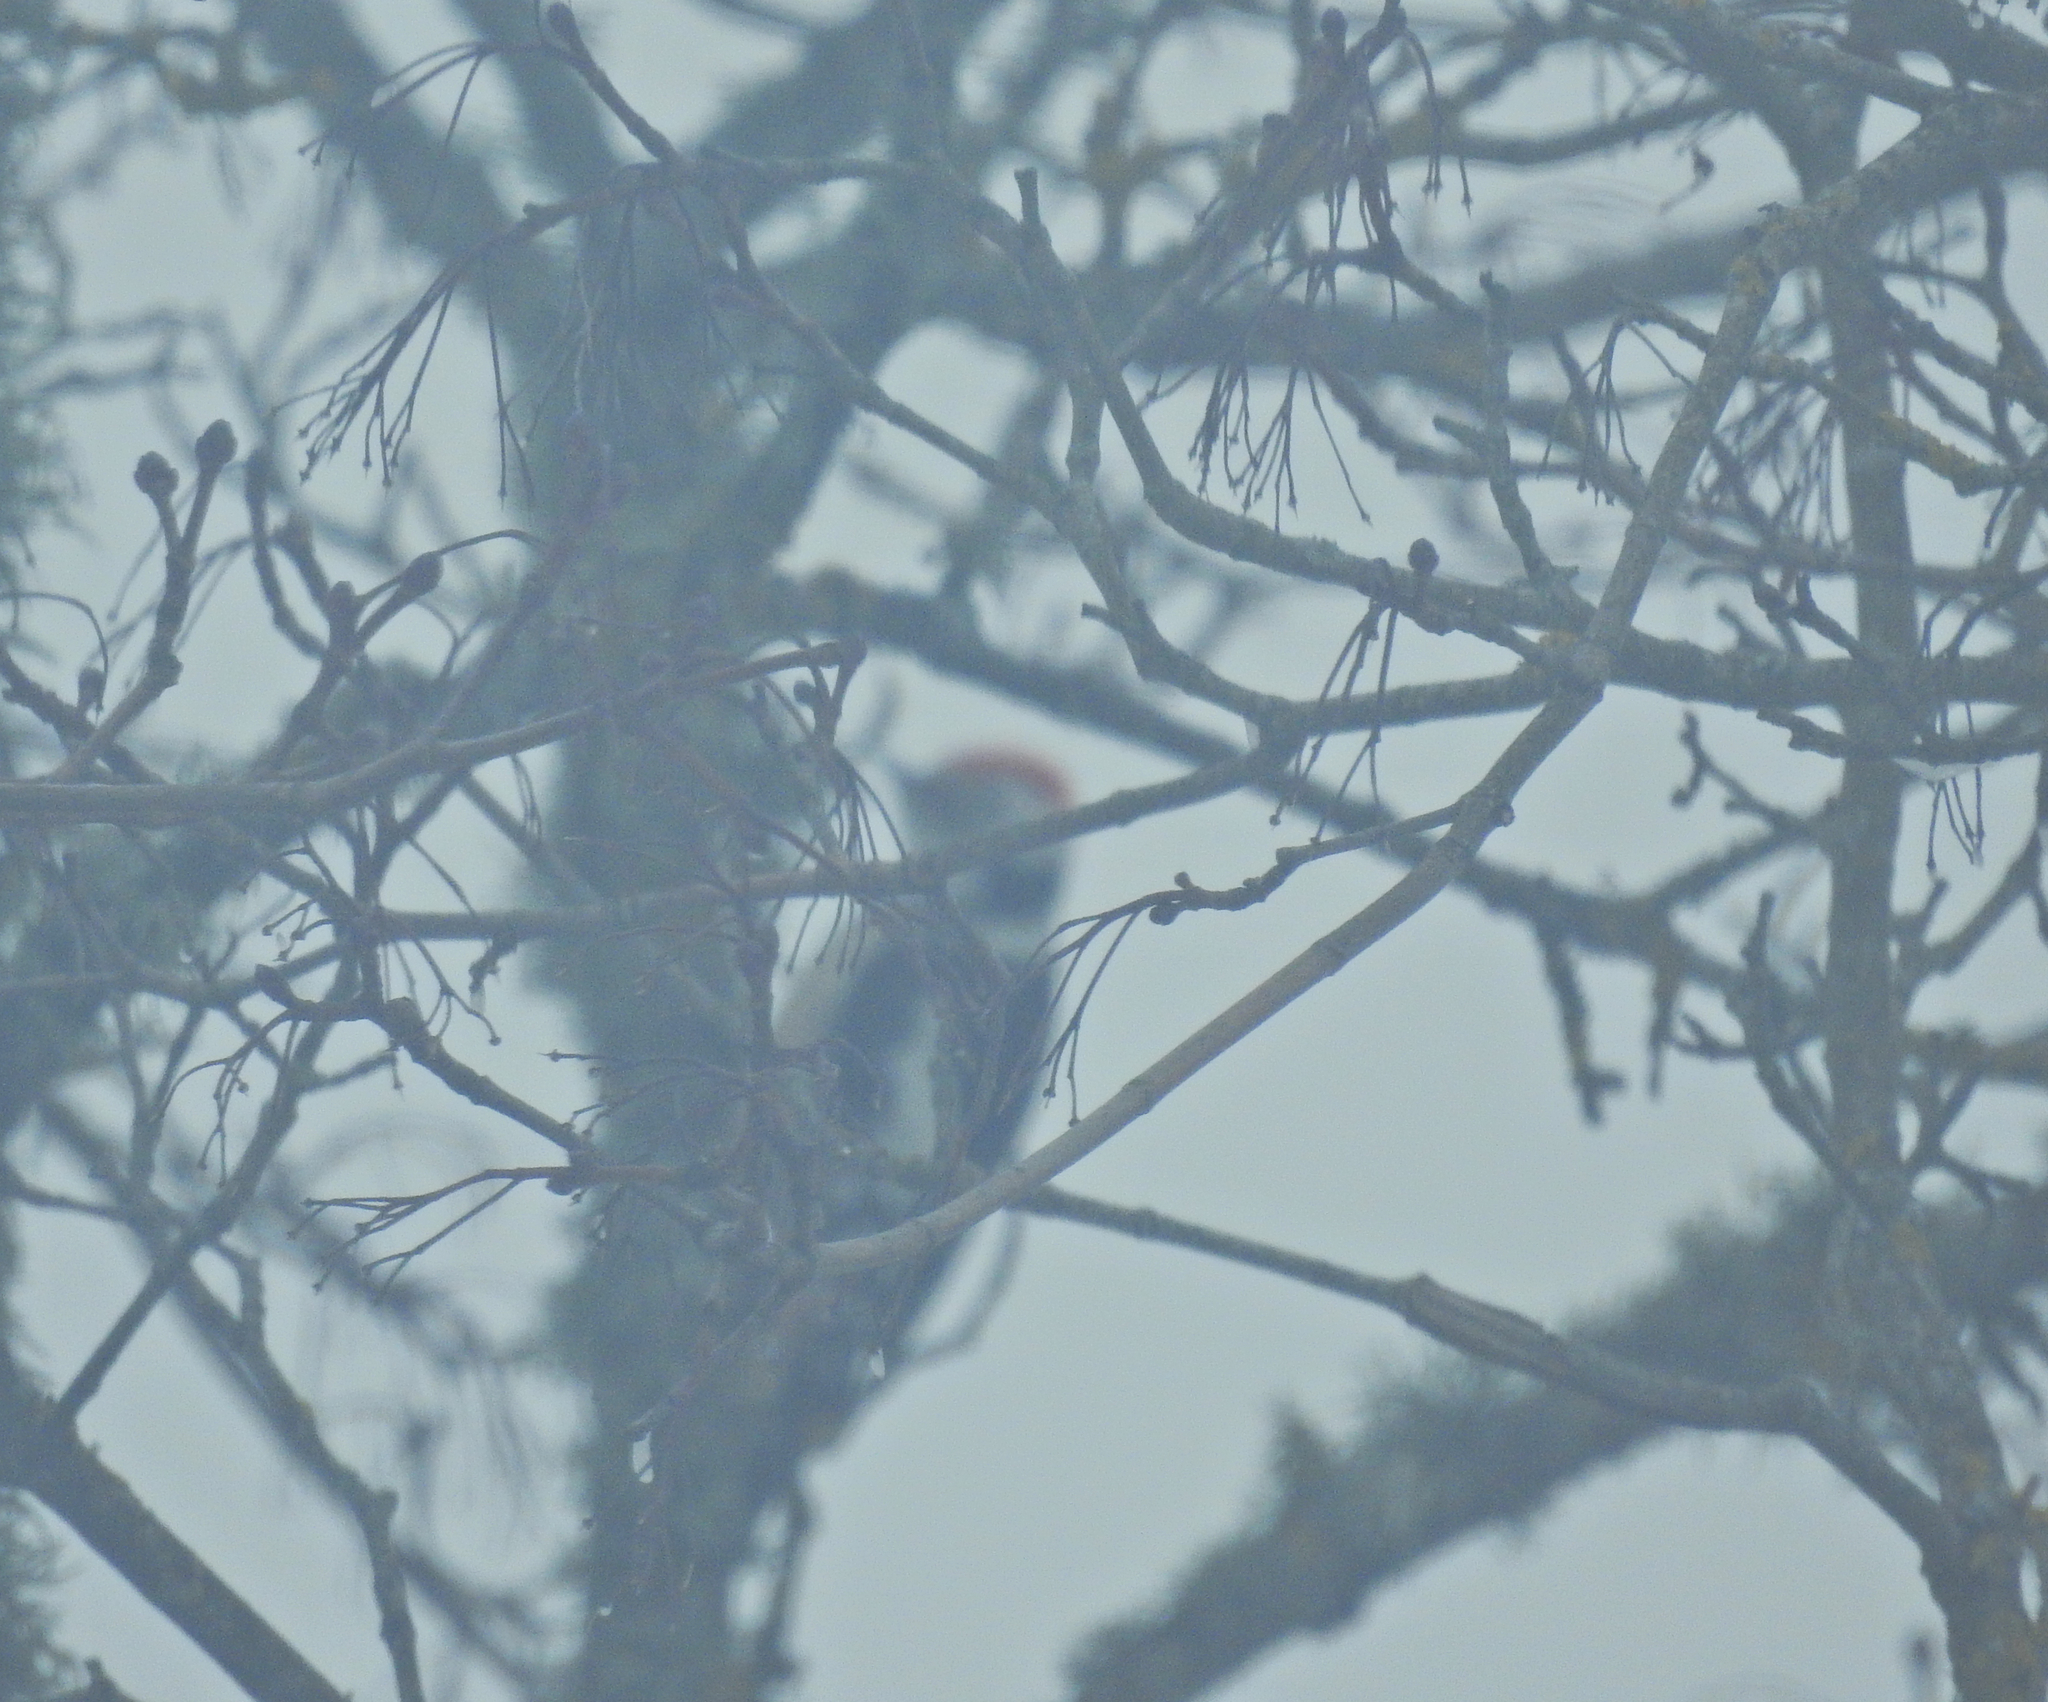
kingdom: Animalia
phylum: Chordata
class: Aves
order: Piciformes
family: Picidae
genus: Dendrocoptes
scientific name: Dendrocoptes medius
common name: Middle spotted woodpecker
